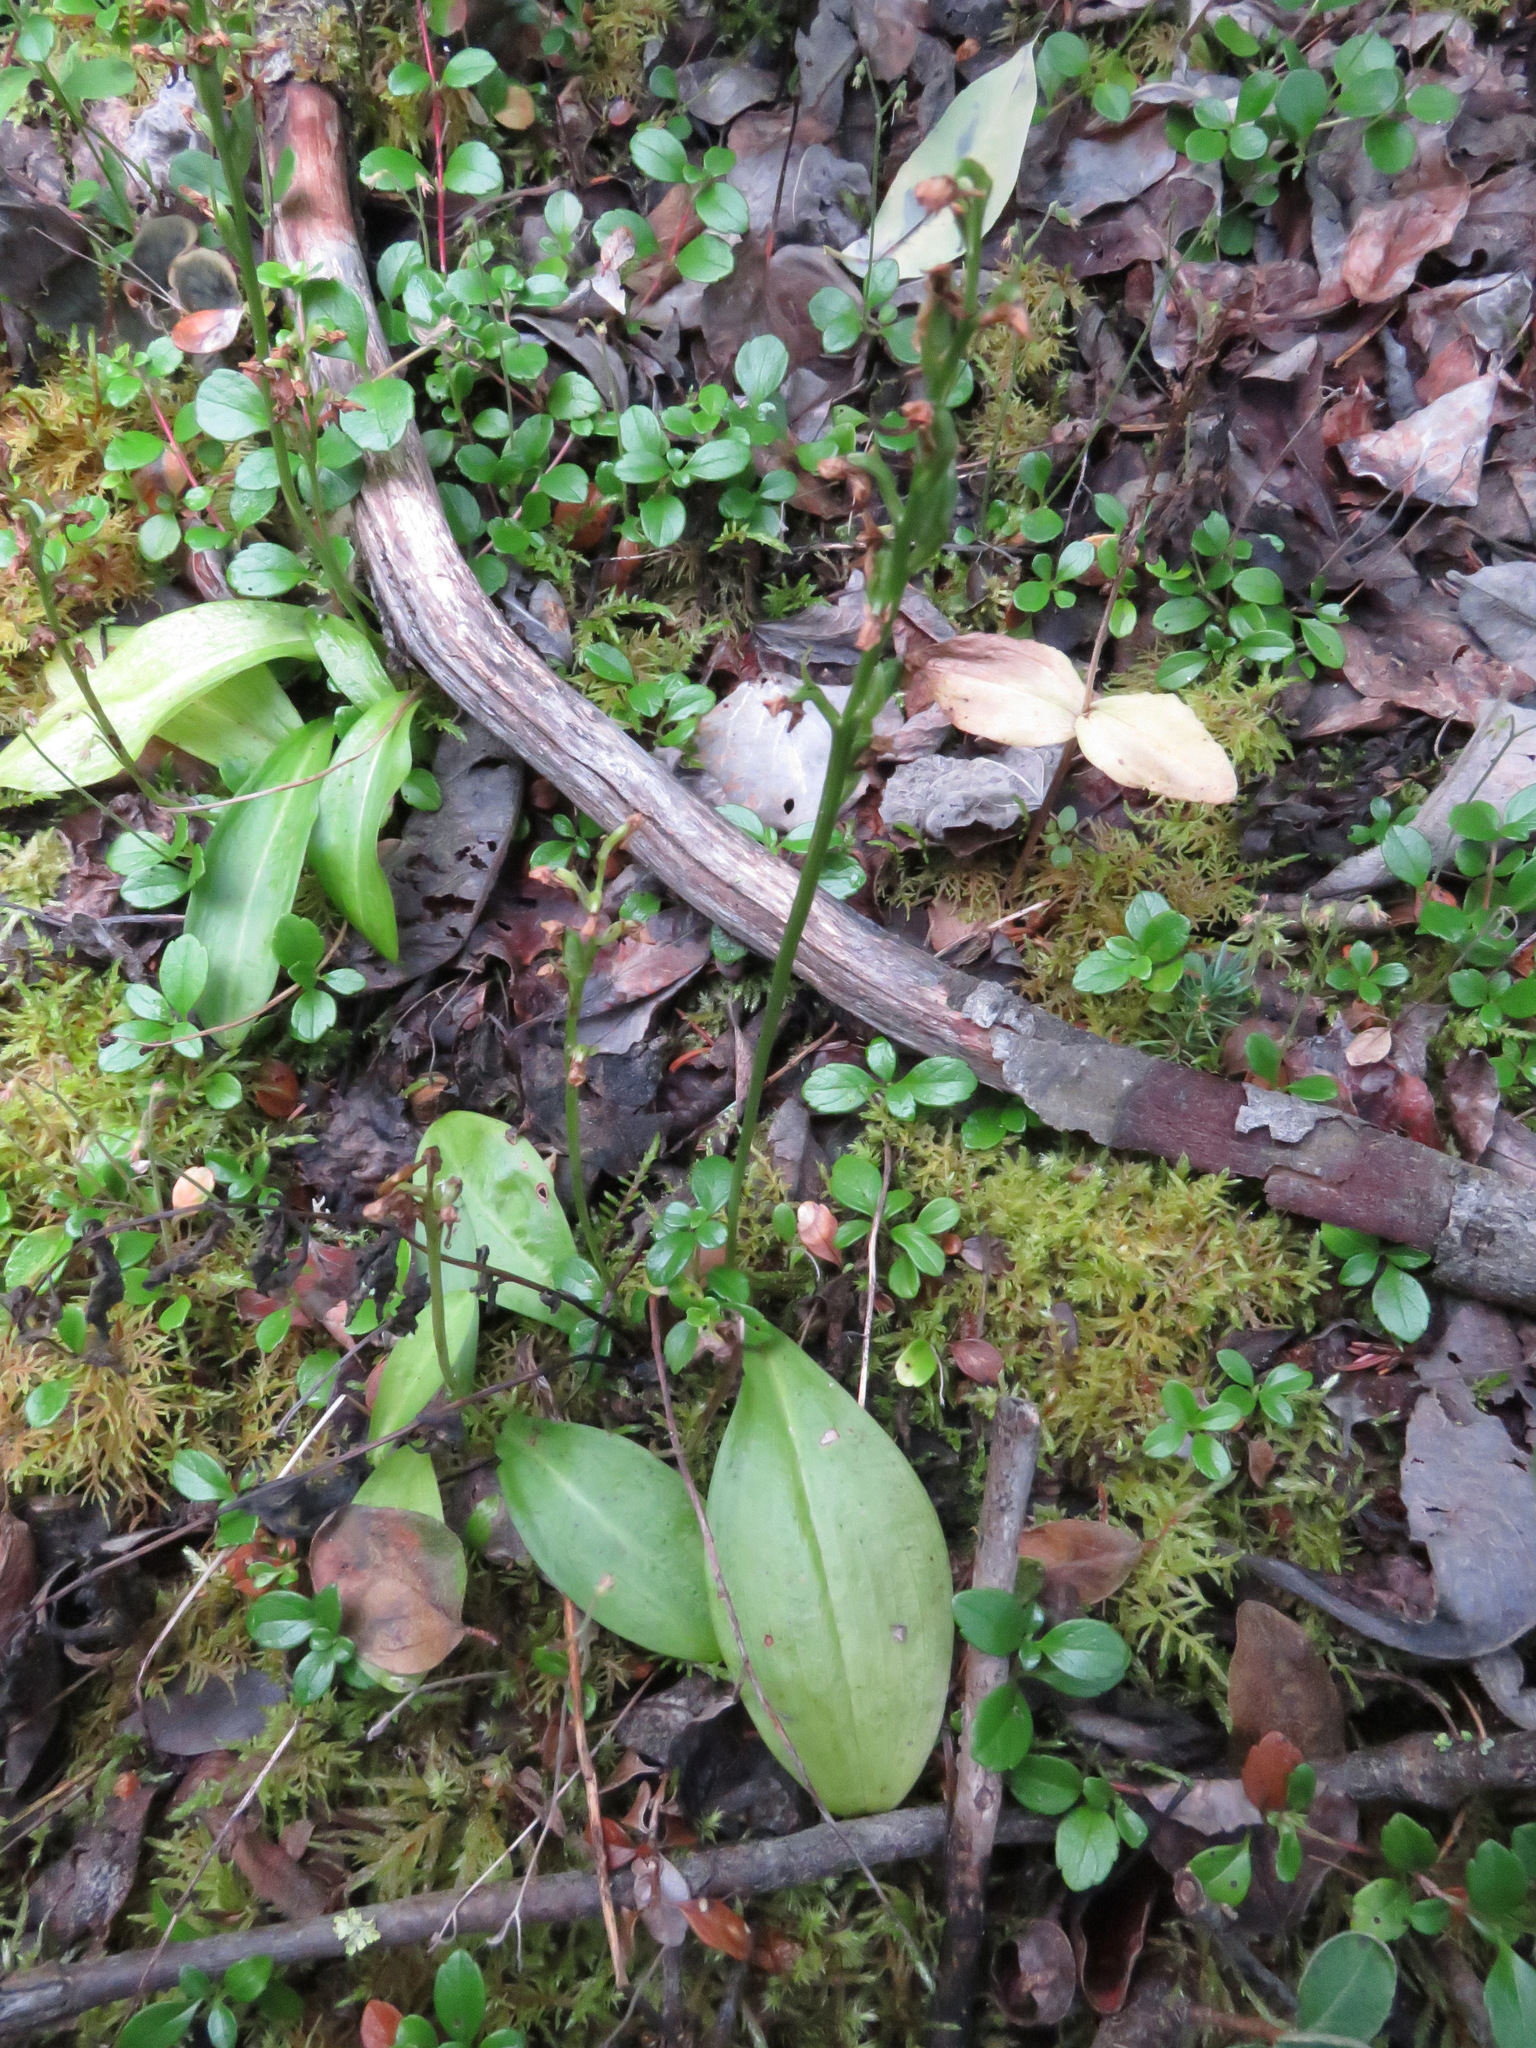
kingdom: Plantae
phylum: Tracheophyta
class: Liliopsida
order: Asparagales
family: Orchidaceae
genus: Platanthera
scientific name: Platanthera obtusata
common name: Blunt bog orchid
